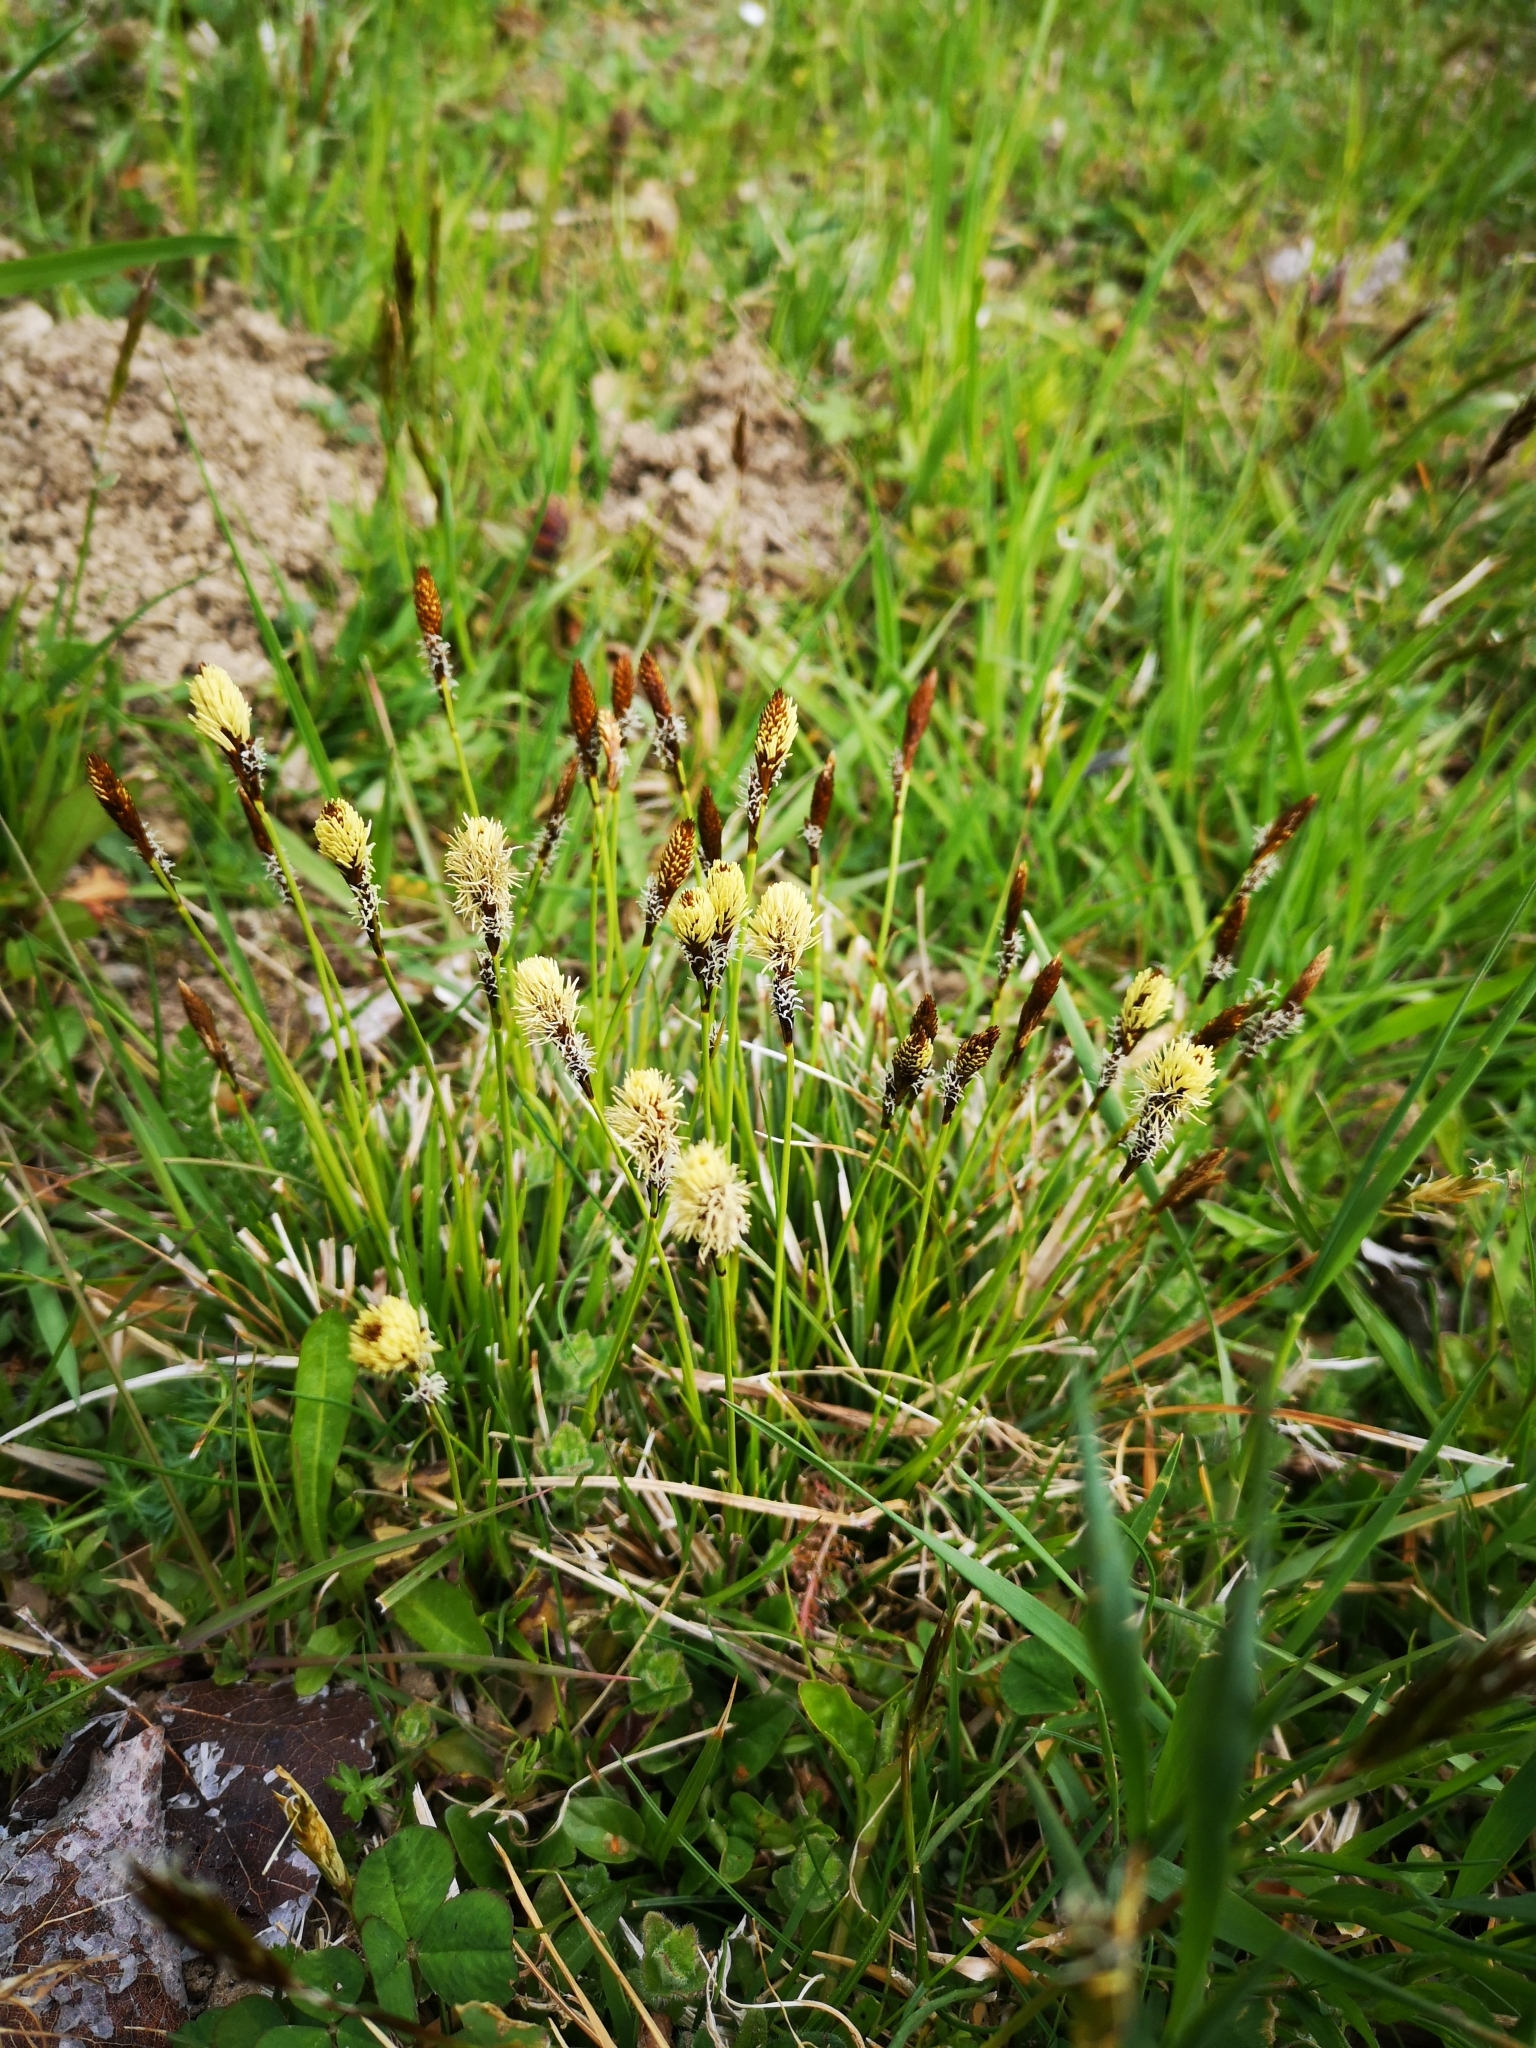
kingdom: Plantae
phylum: Tracheophyta
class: Liliopsida
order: Poales
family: Cyperaceae
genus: Carex
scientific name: Carex caryophyllea
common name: Spring sedge
